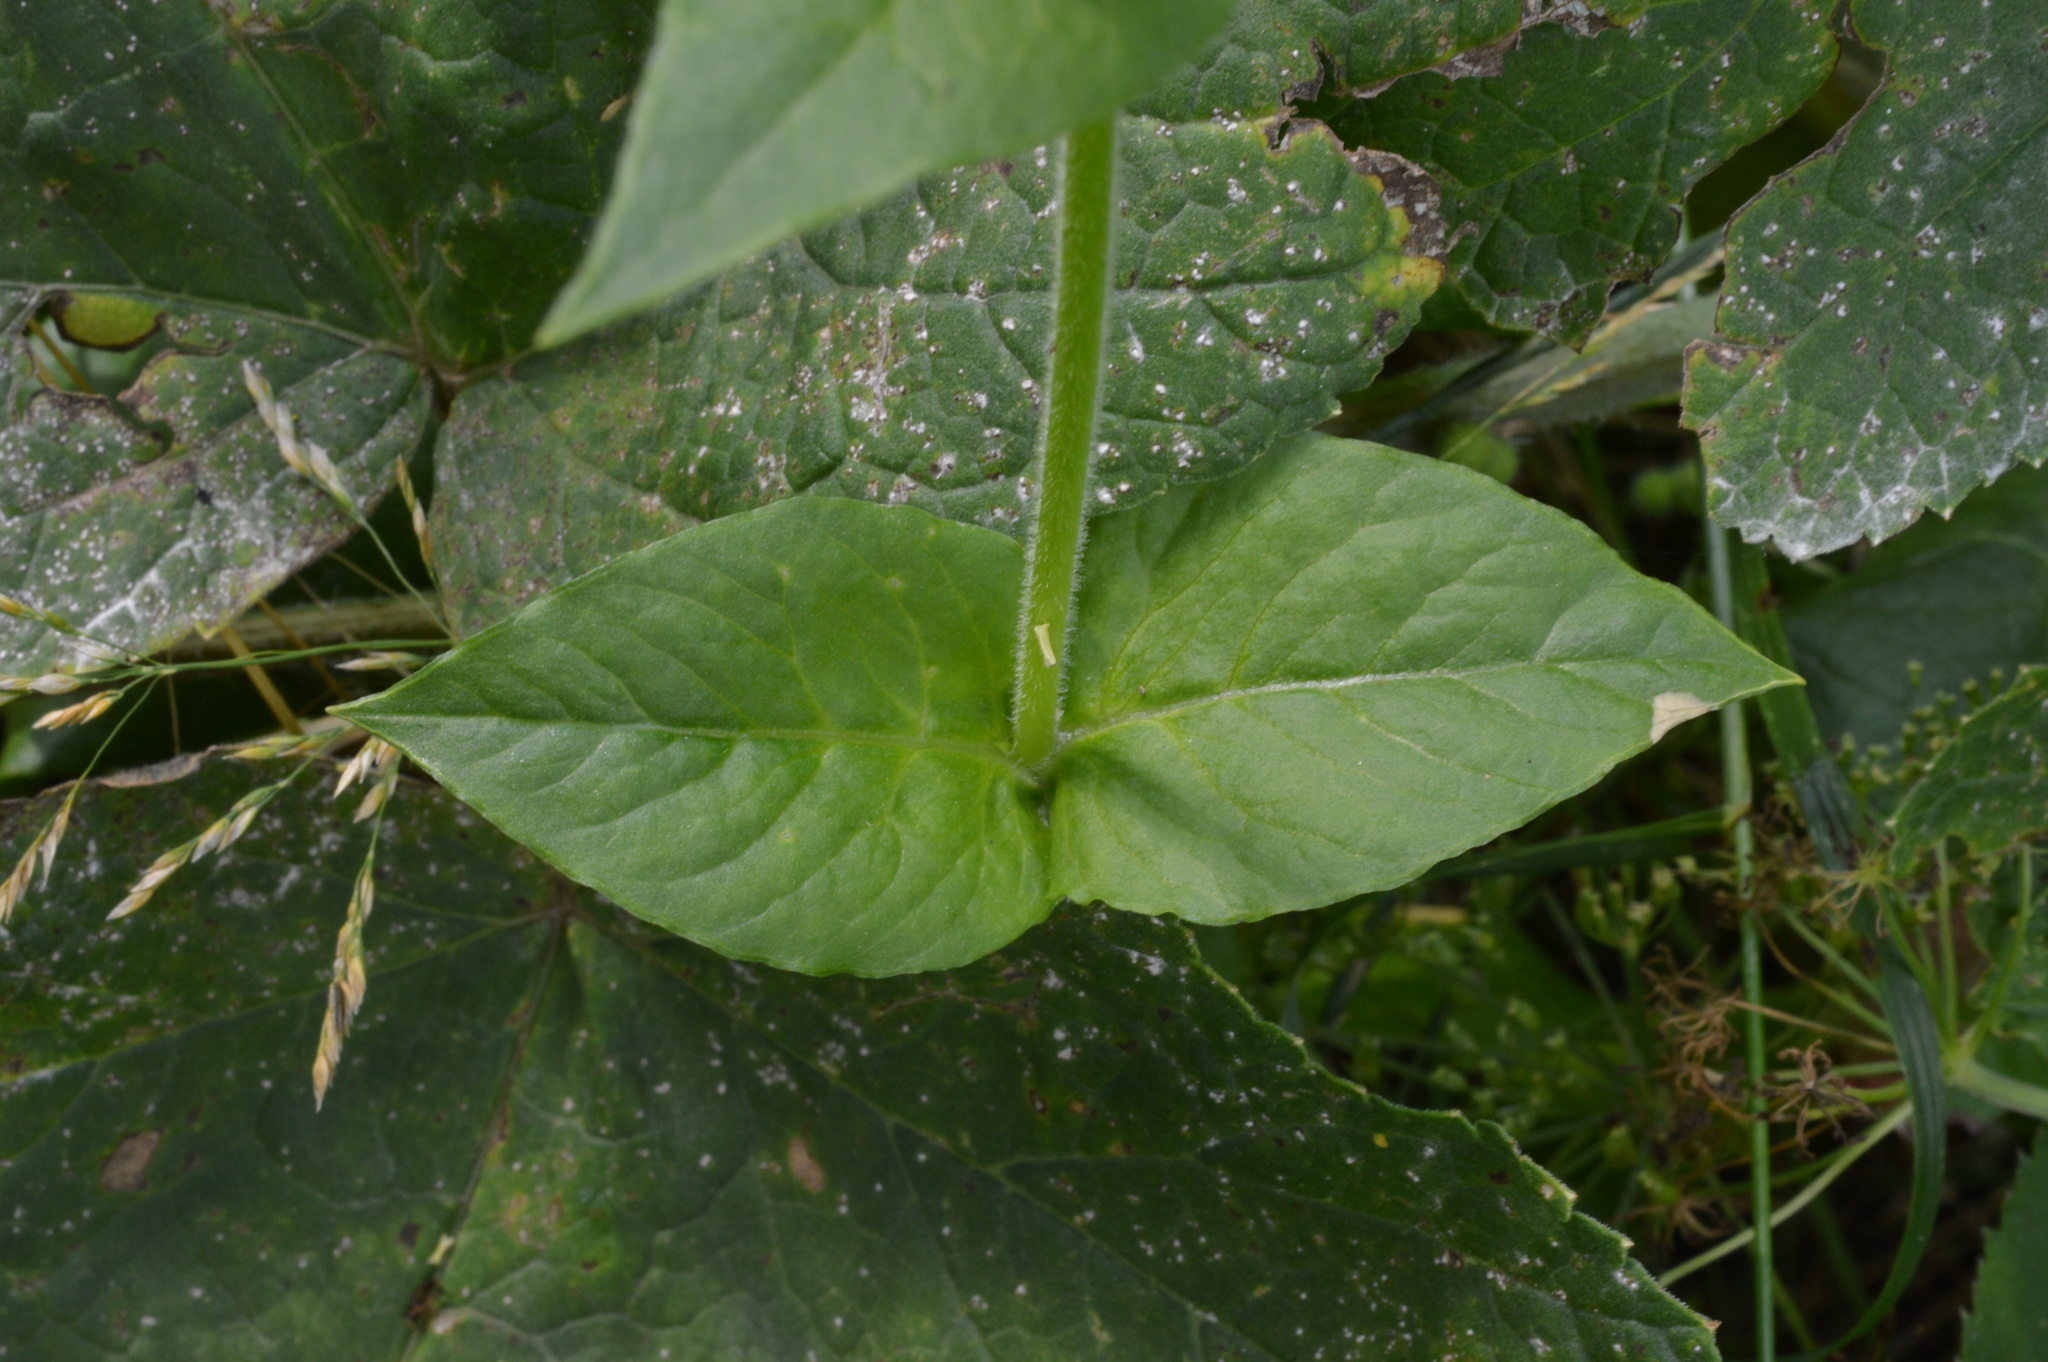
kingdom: Plantae
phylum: Tracheophyta
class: Magnoliopsida
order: Caryophyllales
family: Caryophyllaceae
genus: Stellaria
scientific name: Stellaria aquatica
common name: Water chickweed
